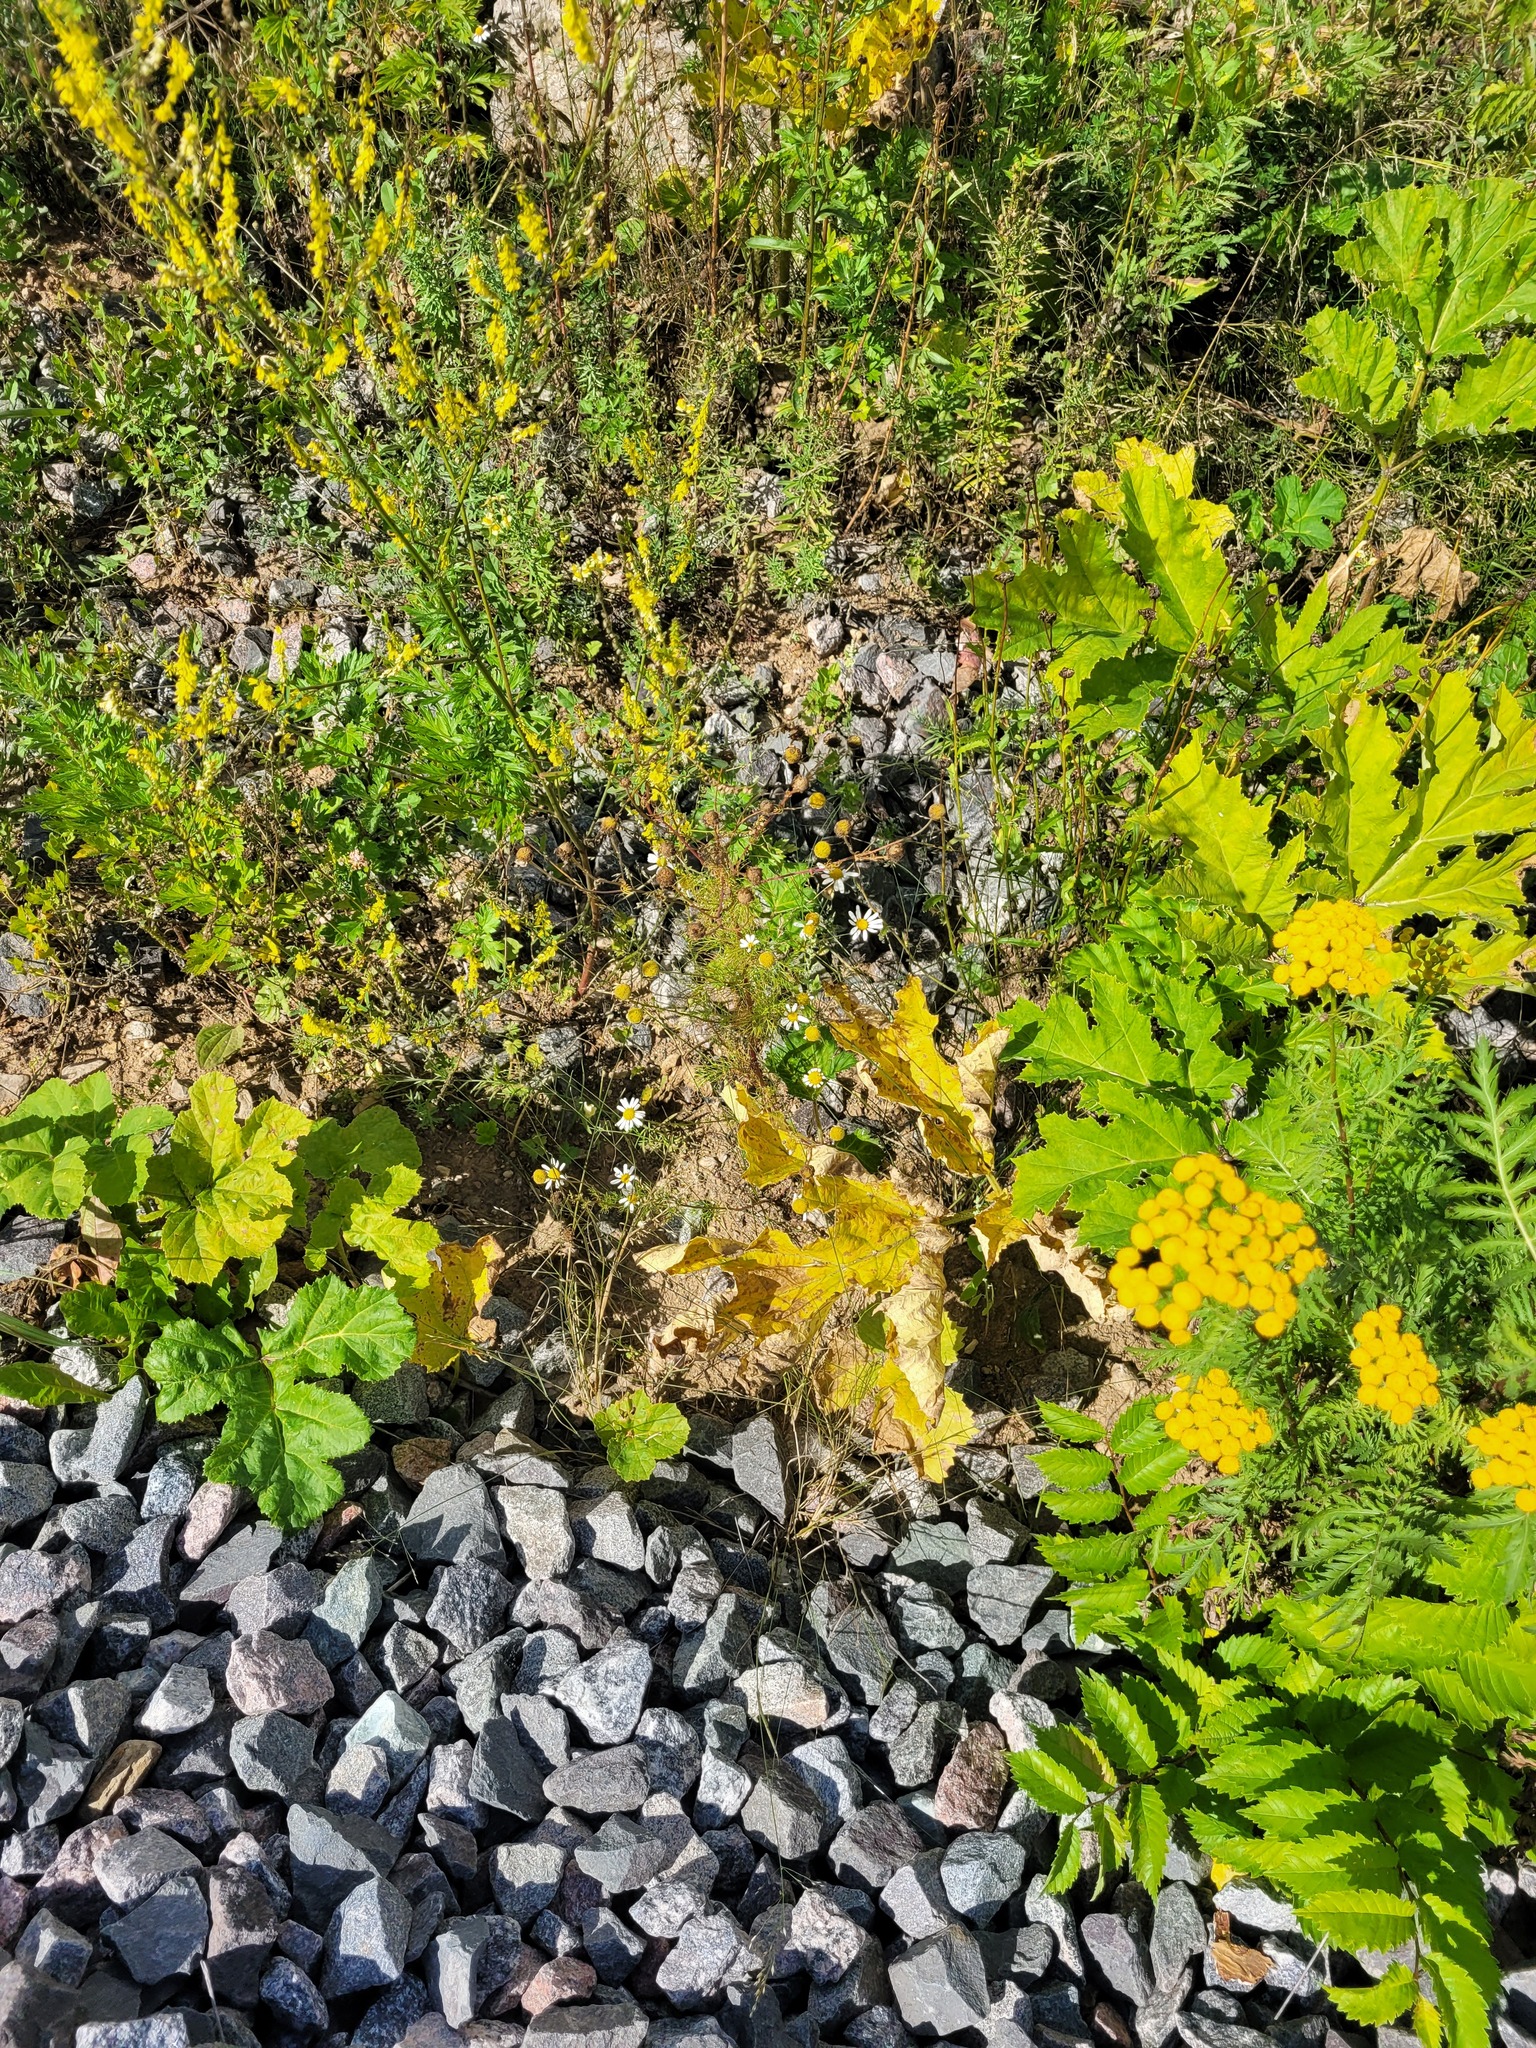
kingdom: Plantae
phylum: Tracheophyta
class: Magnoliopsida
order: Asterales
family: Asteraceae
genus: Tripleurospermum
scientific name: Tripleurospermum inodorum
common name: Scentless mayweed
